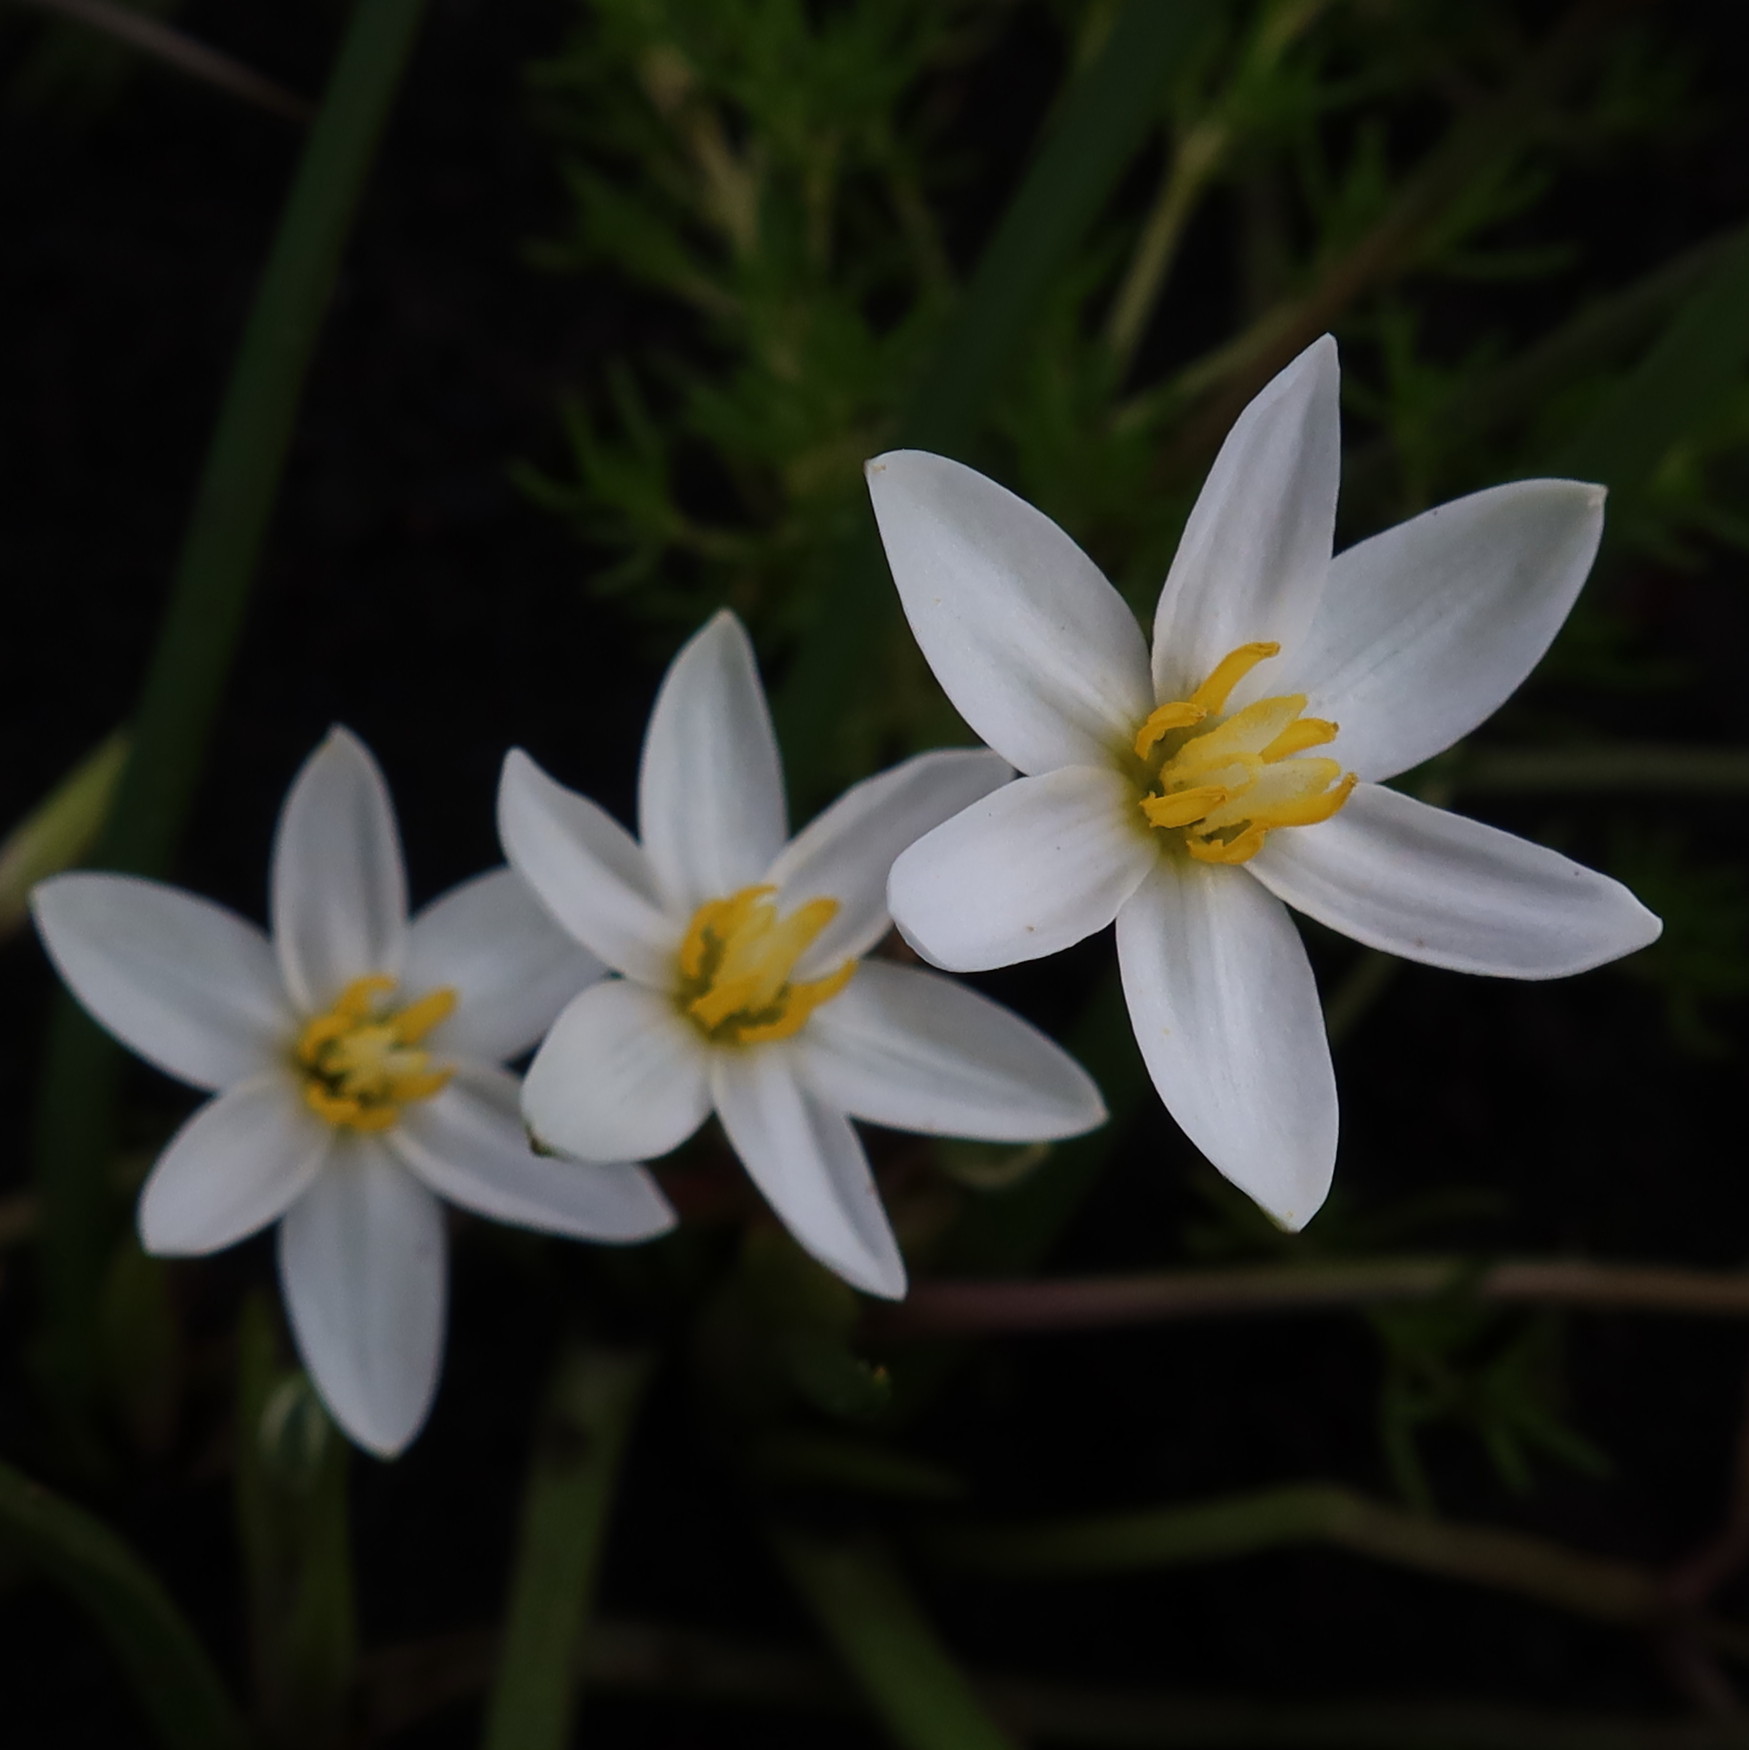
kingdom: Plantae
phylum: Tracheophyta
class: Liliopsida
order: Asparagales
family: Hypoxidaceae
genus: Pauridia
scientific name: Pauridia aquatica
